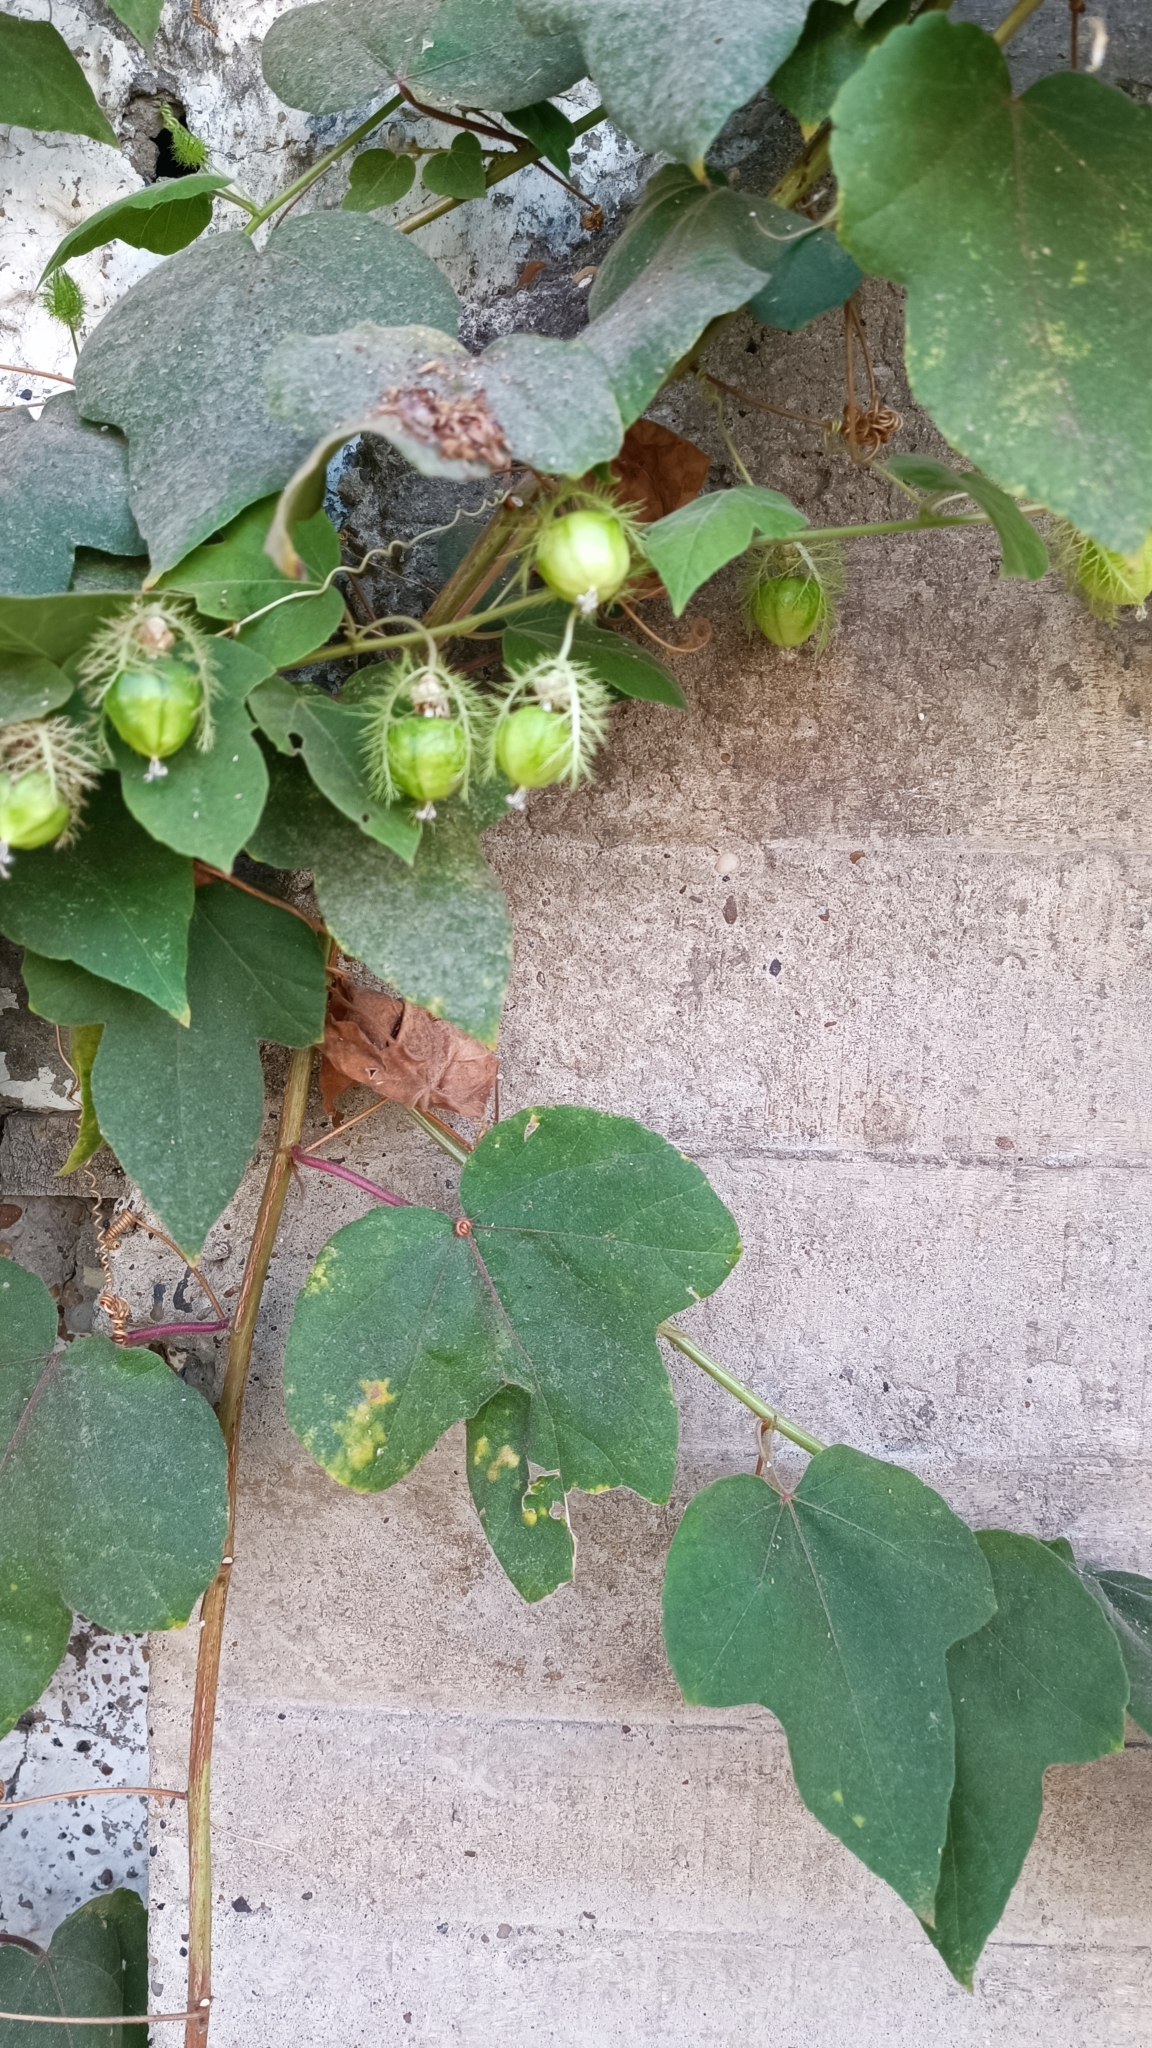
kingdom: Plantae
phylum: Tracheophyta
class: Magnoliopsida
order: Malpighiales
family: Passifloraceae
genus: Passiflora
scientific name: Passiflora foetida
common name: Fetid passionflower
